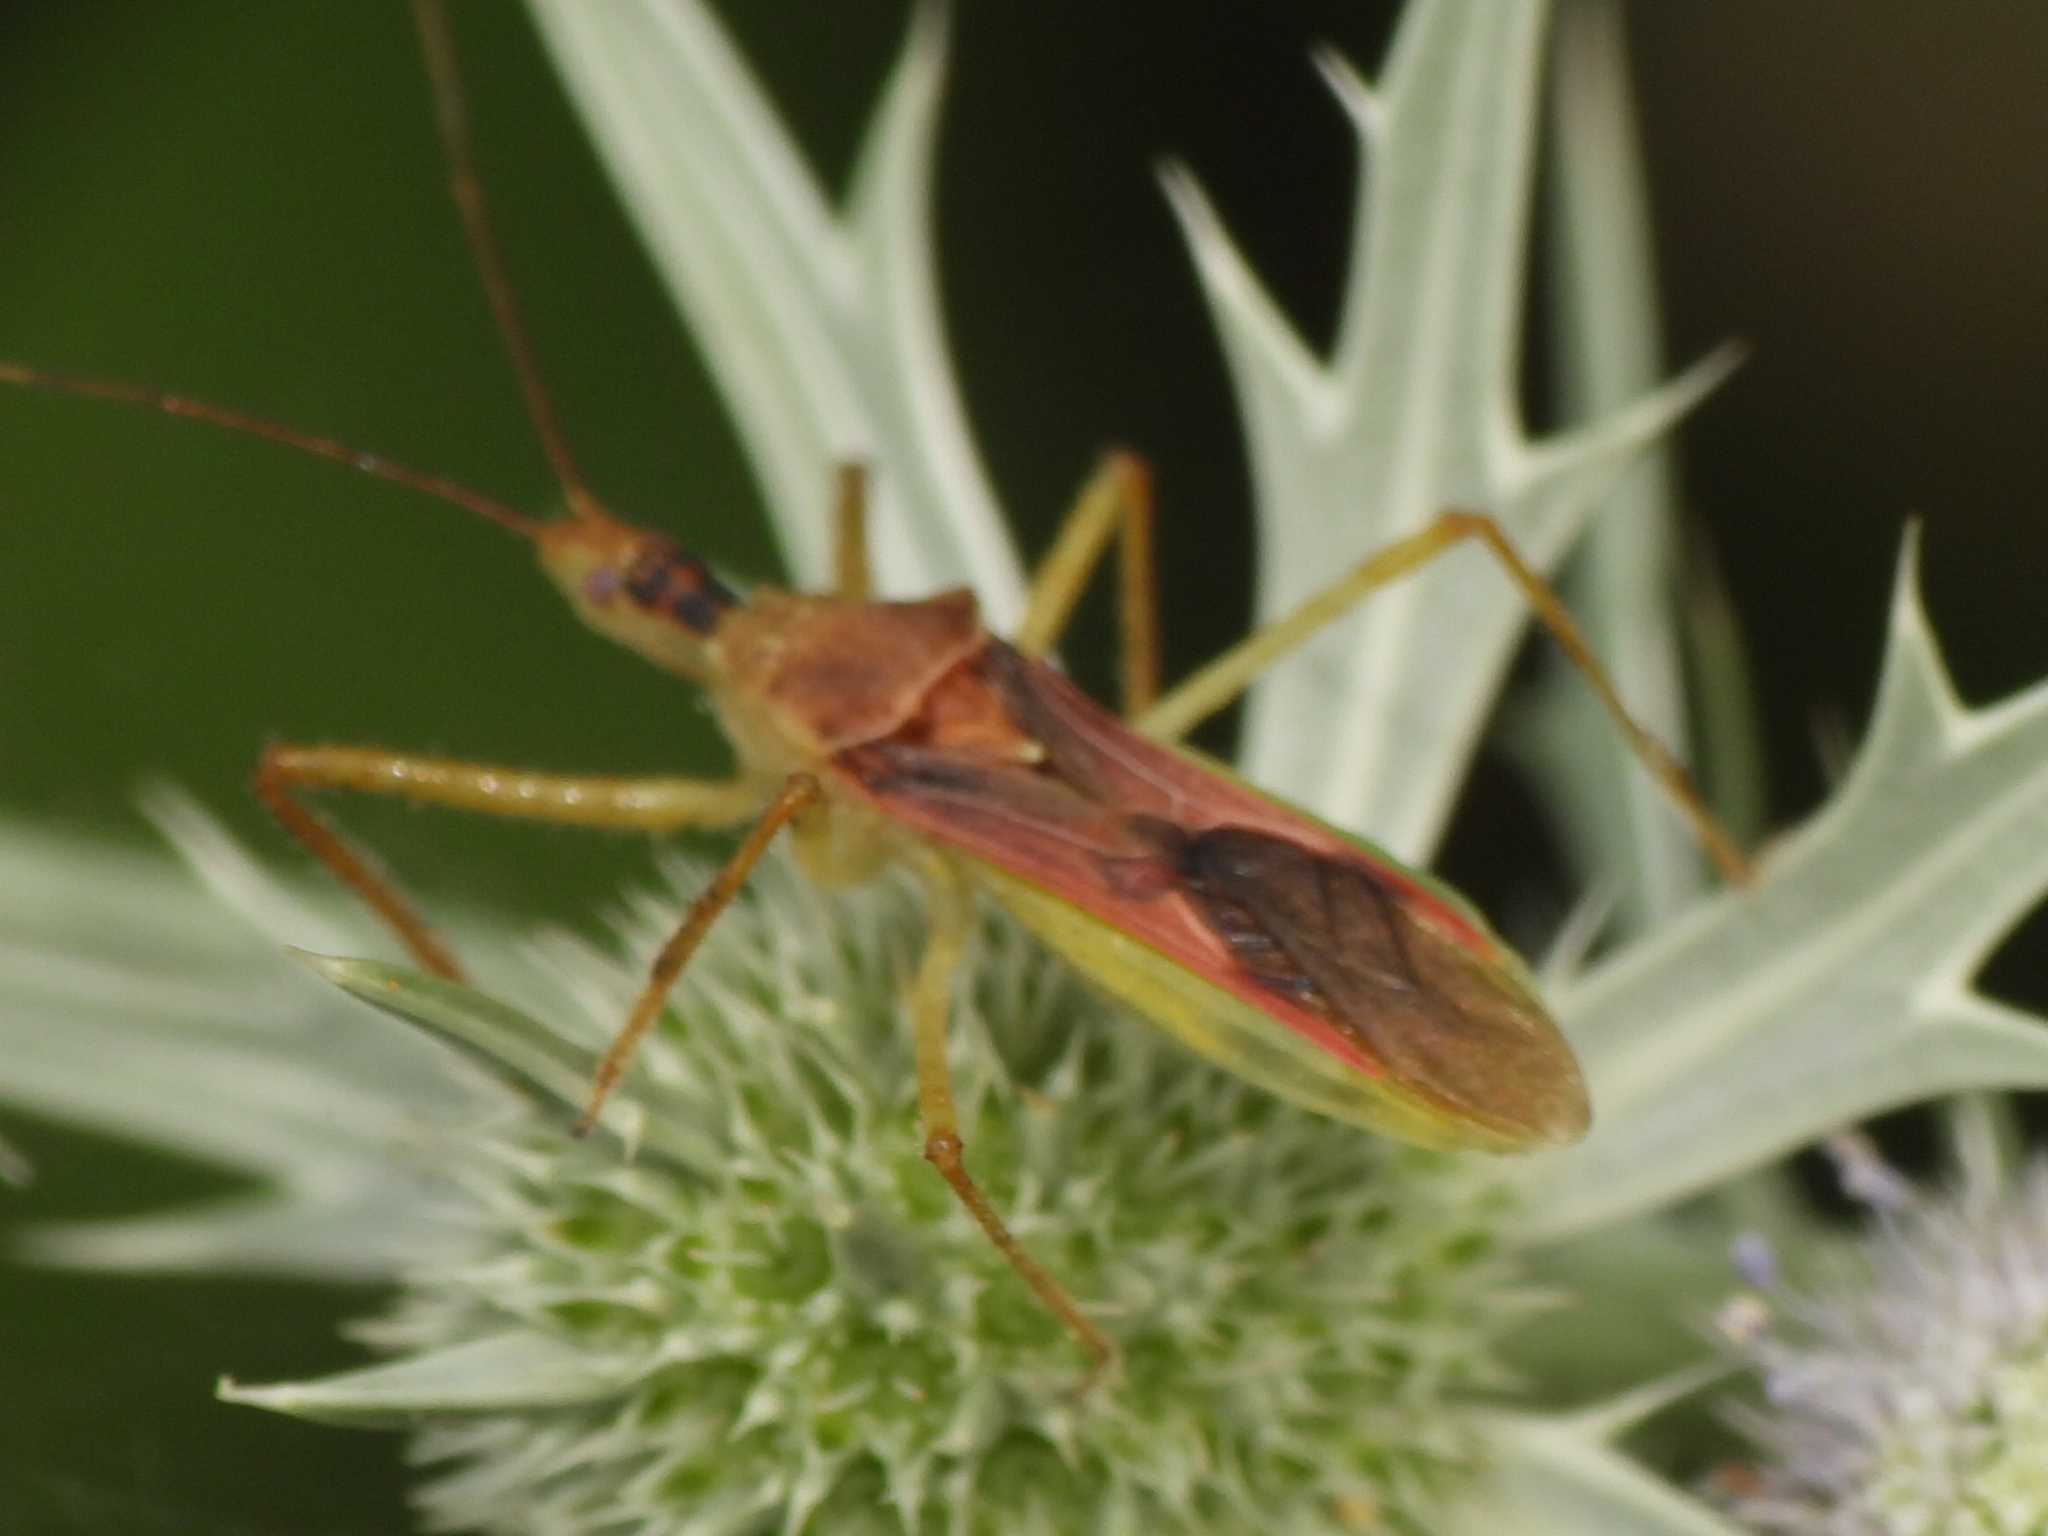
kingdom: Animalia
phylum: Arthropoda
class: Insecta
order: Hemiptera
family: Reduviidae
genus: Zelus
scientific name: Zelus renardii
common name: Assassin bug
